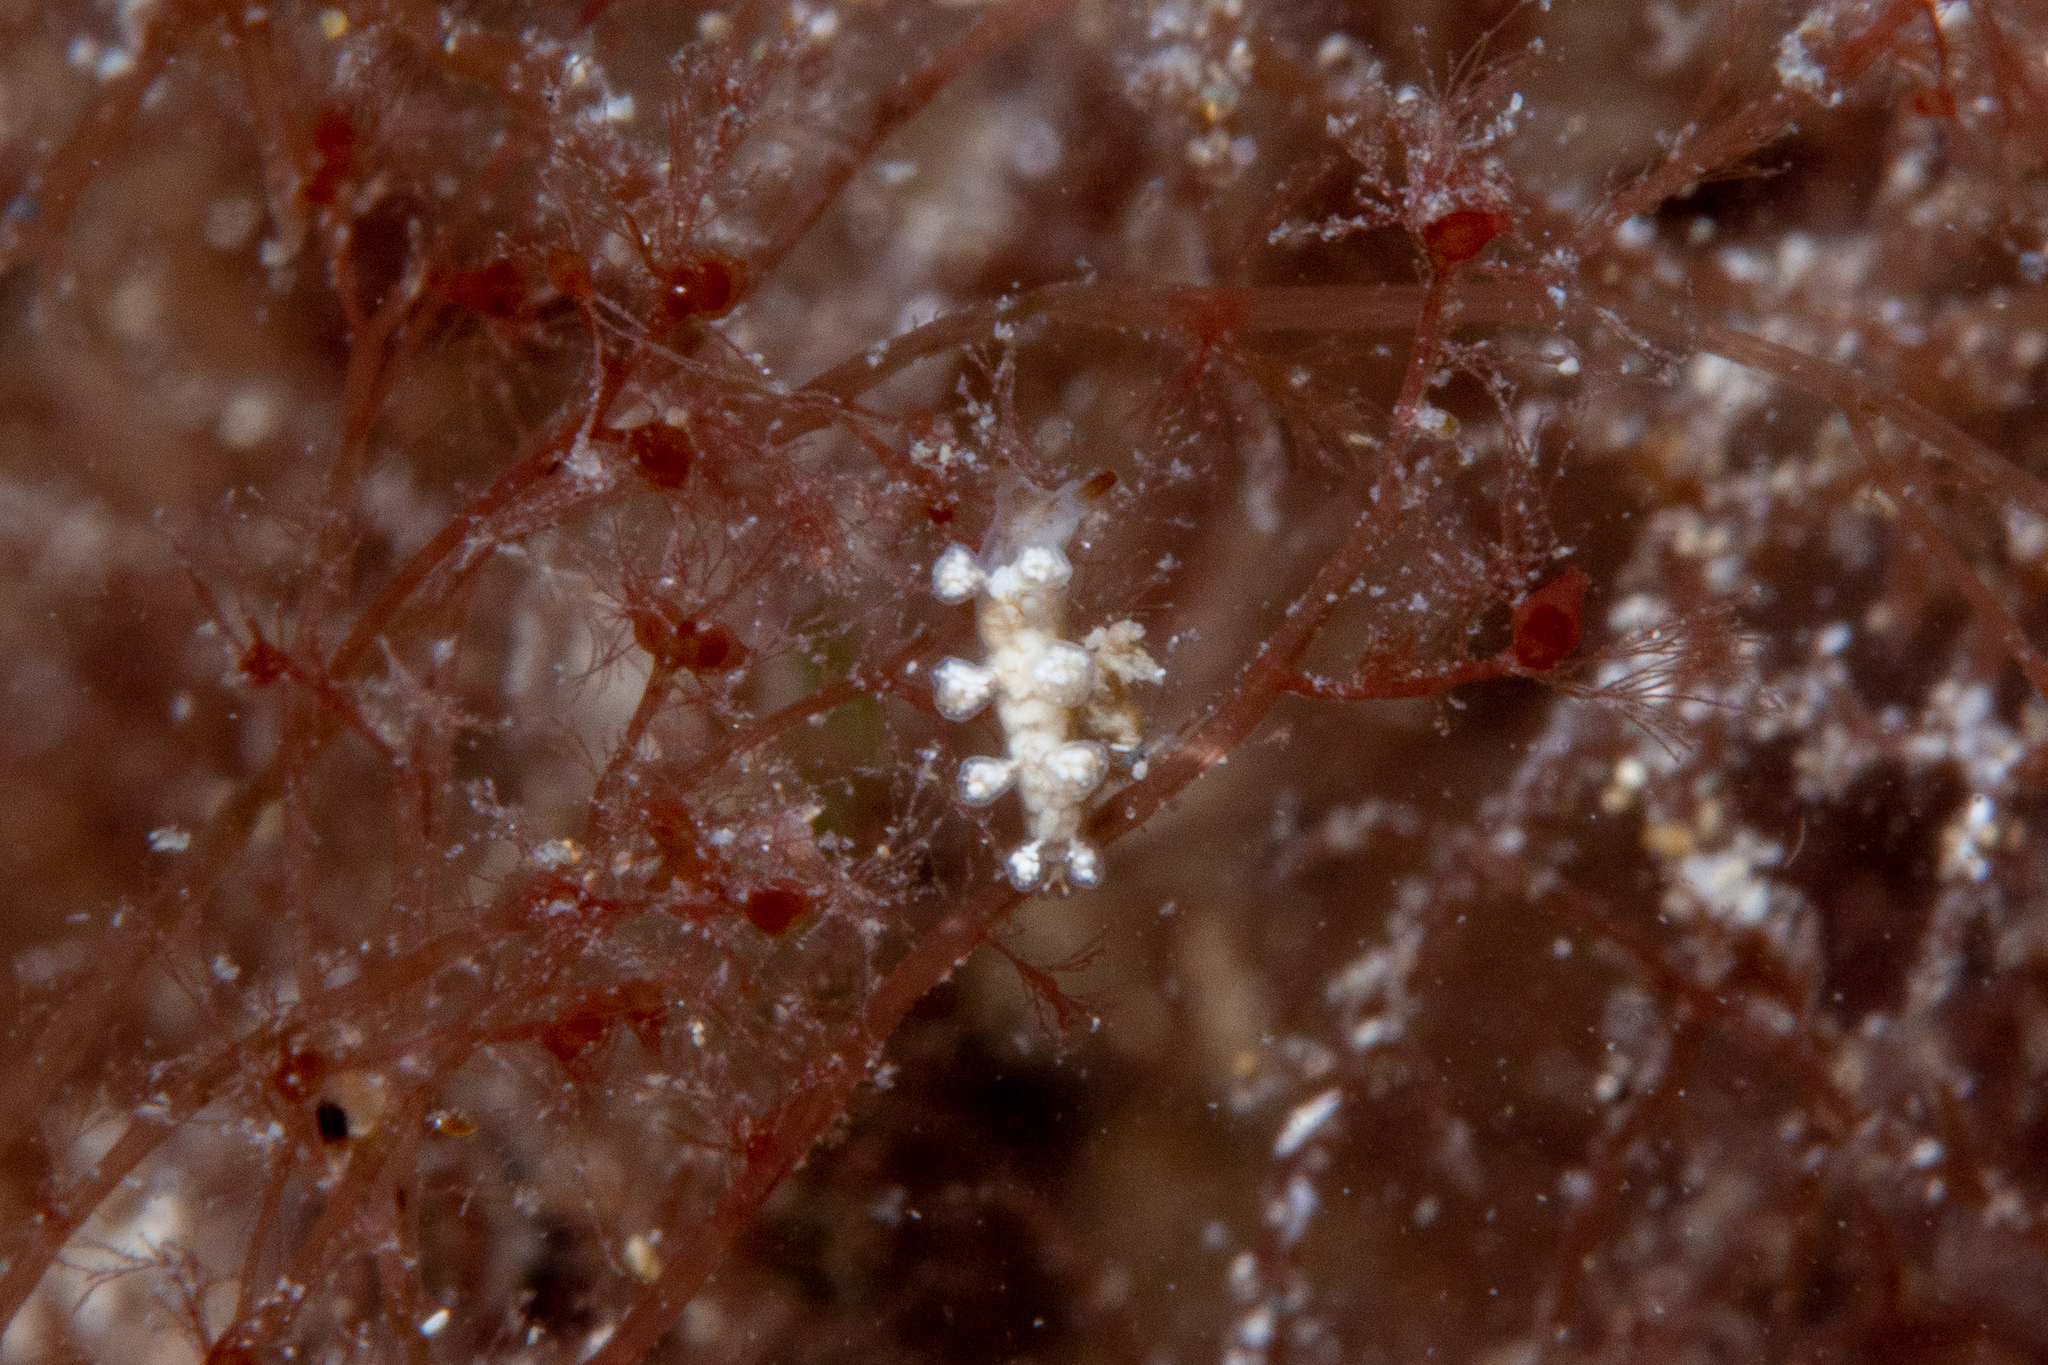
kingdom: Animalia
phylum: Mollusca
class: Gastropoda
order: Nudibranchia
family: Dotidae
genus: Doto
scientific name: Doto pita
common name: Pita doto
